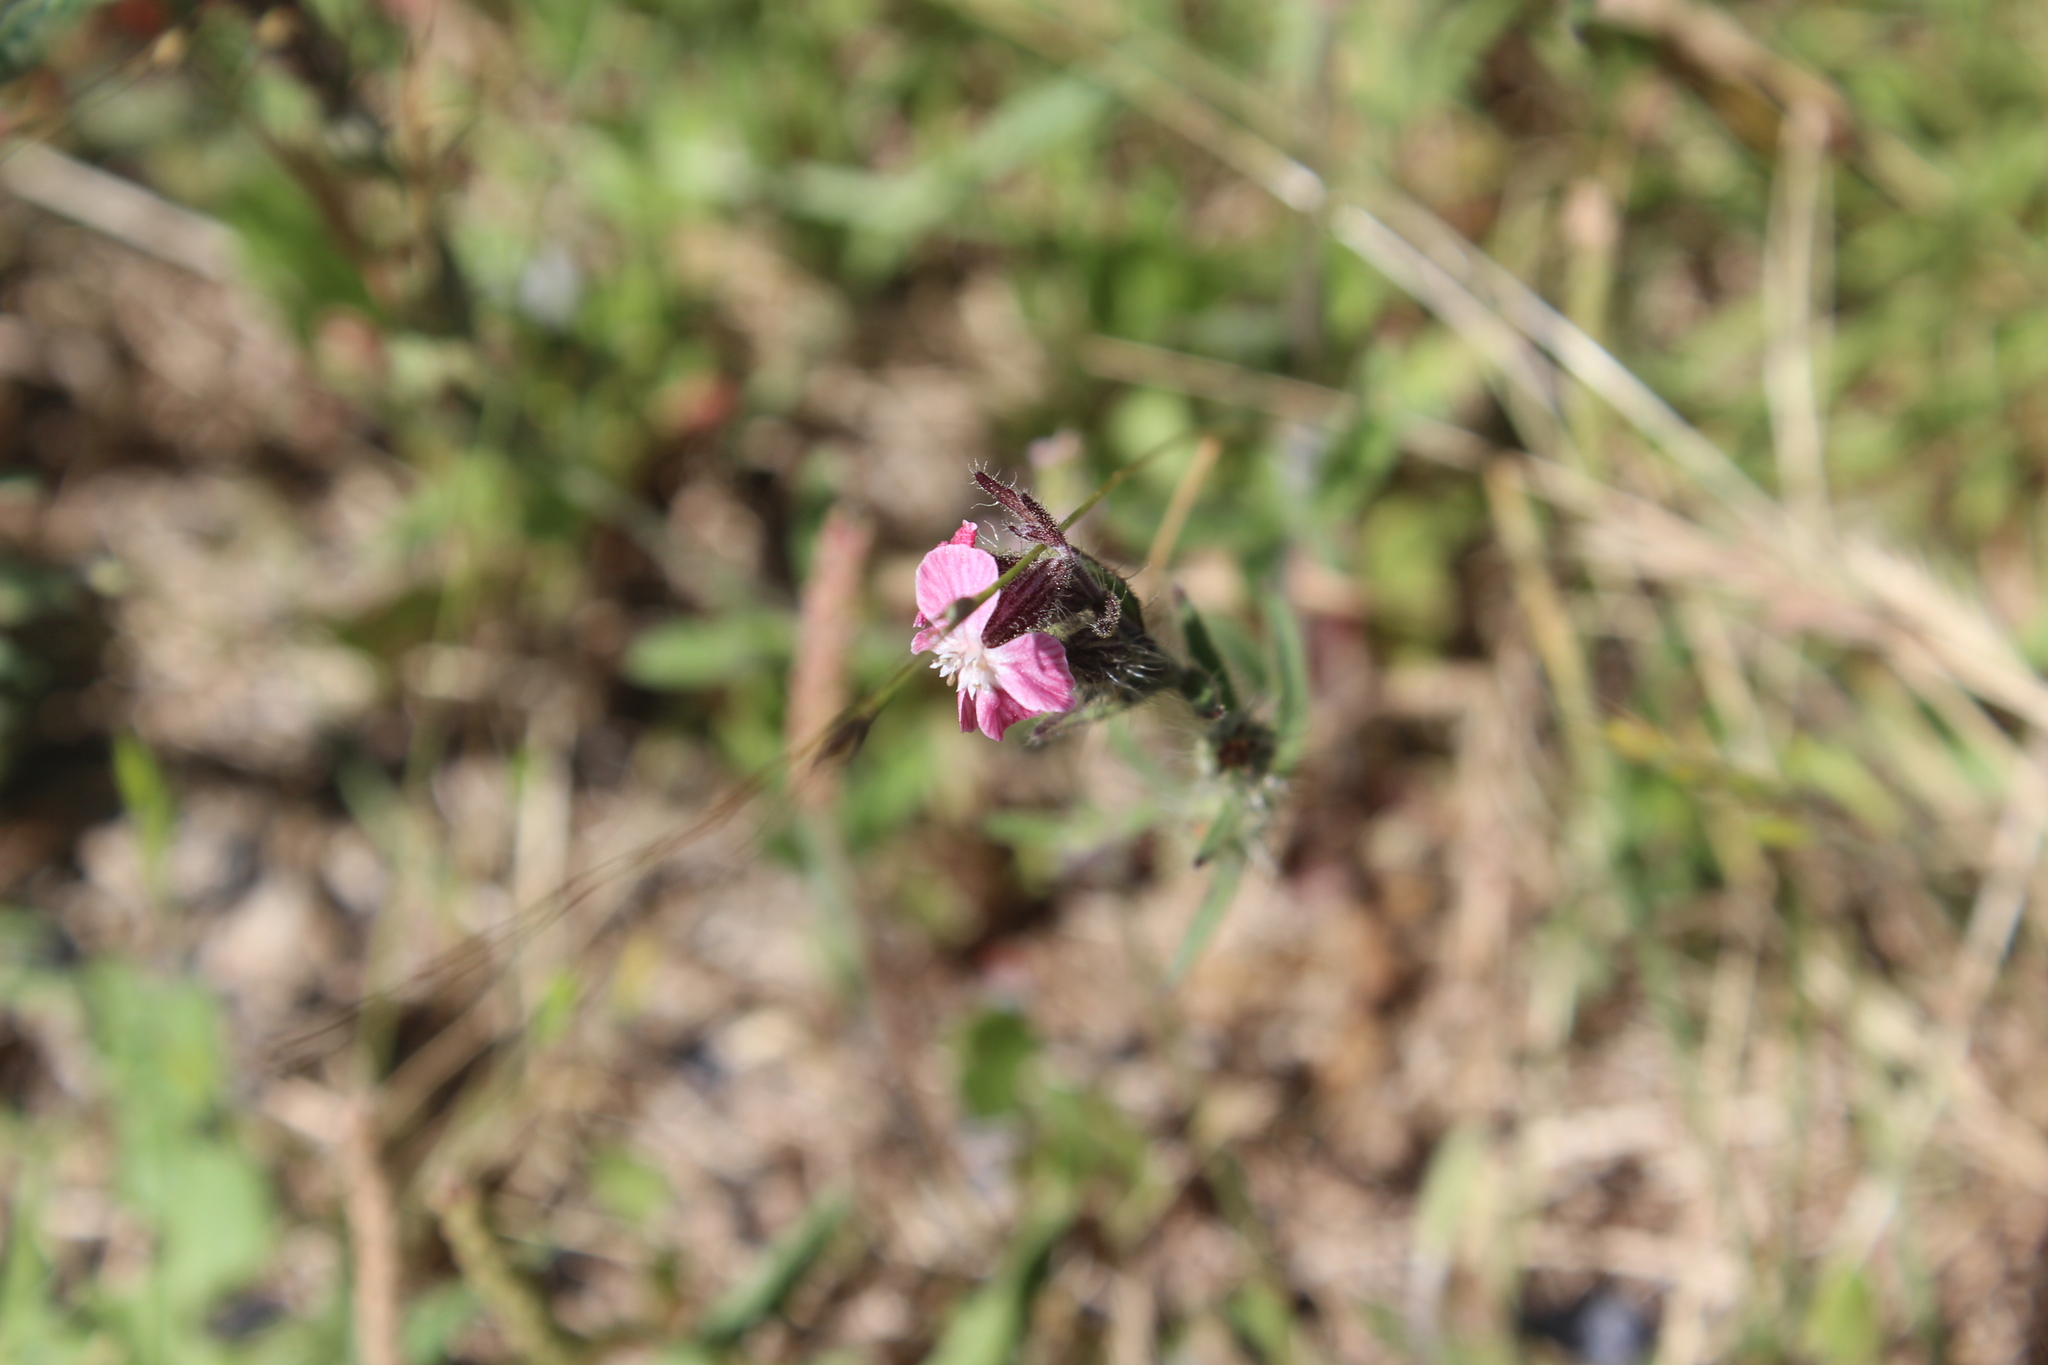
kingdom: Plantae
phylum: Tracheophyta
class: Magnoliopsida
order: Caryophyllales
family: Caryophyllaceae
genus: Silene
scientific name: Silene gallica
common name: Small-flowered catchfly
